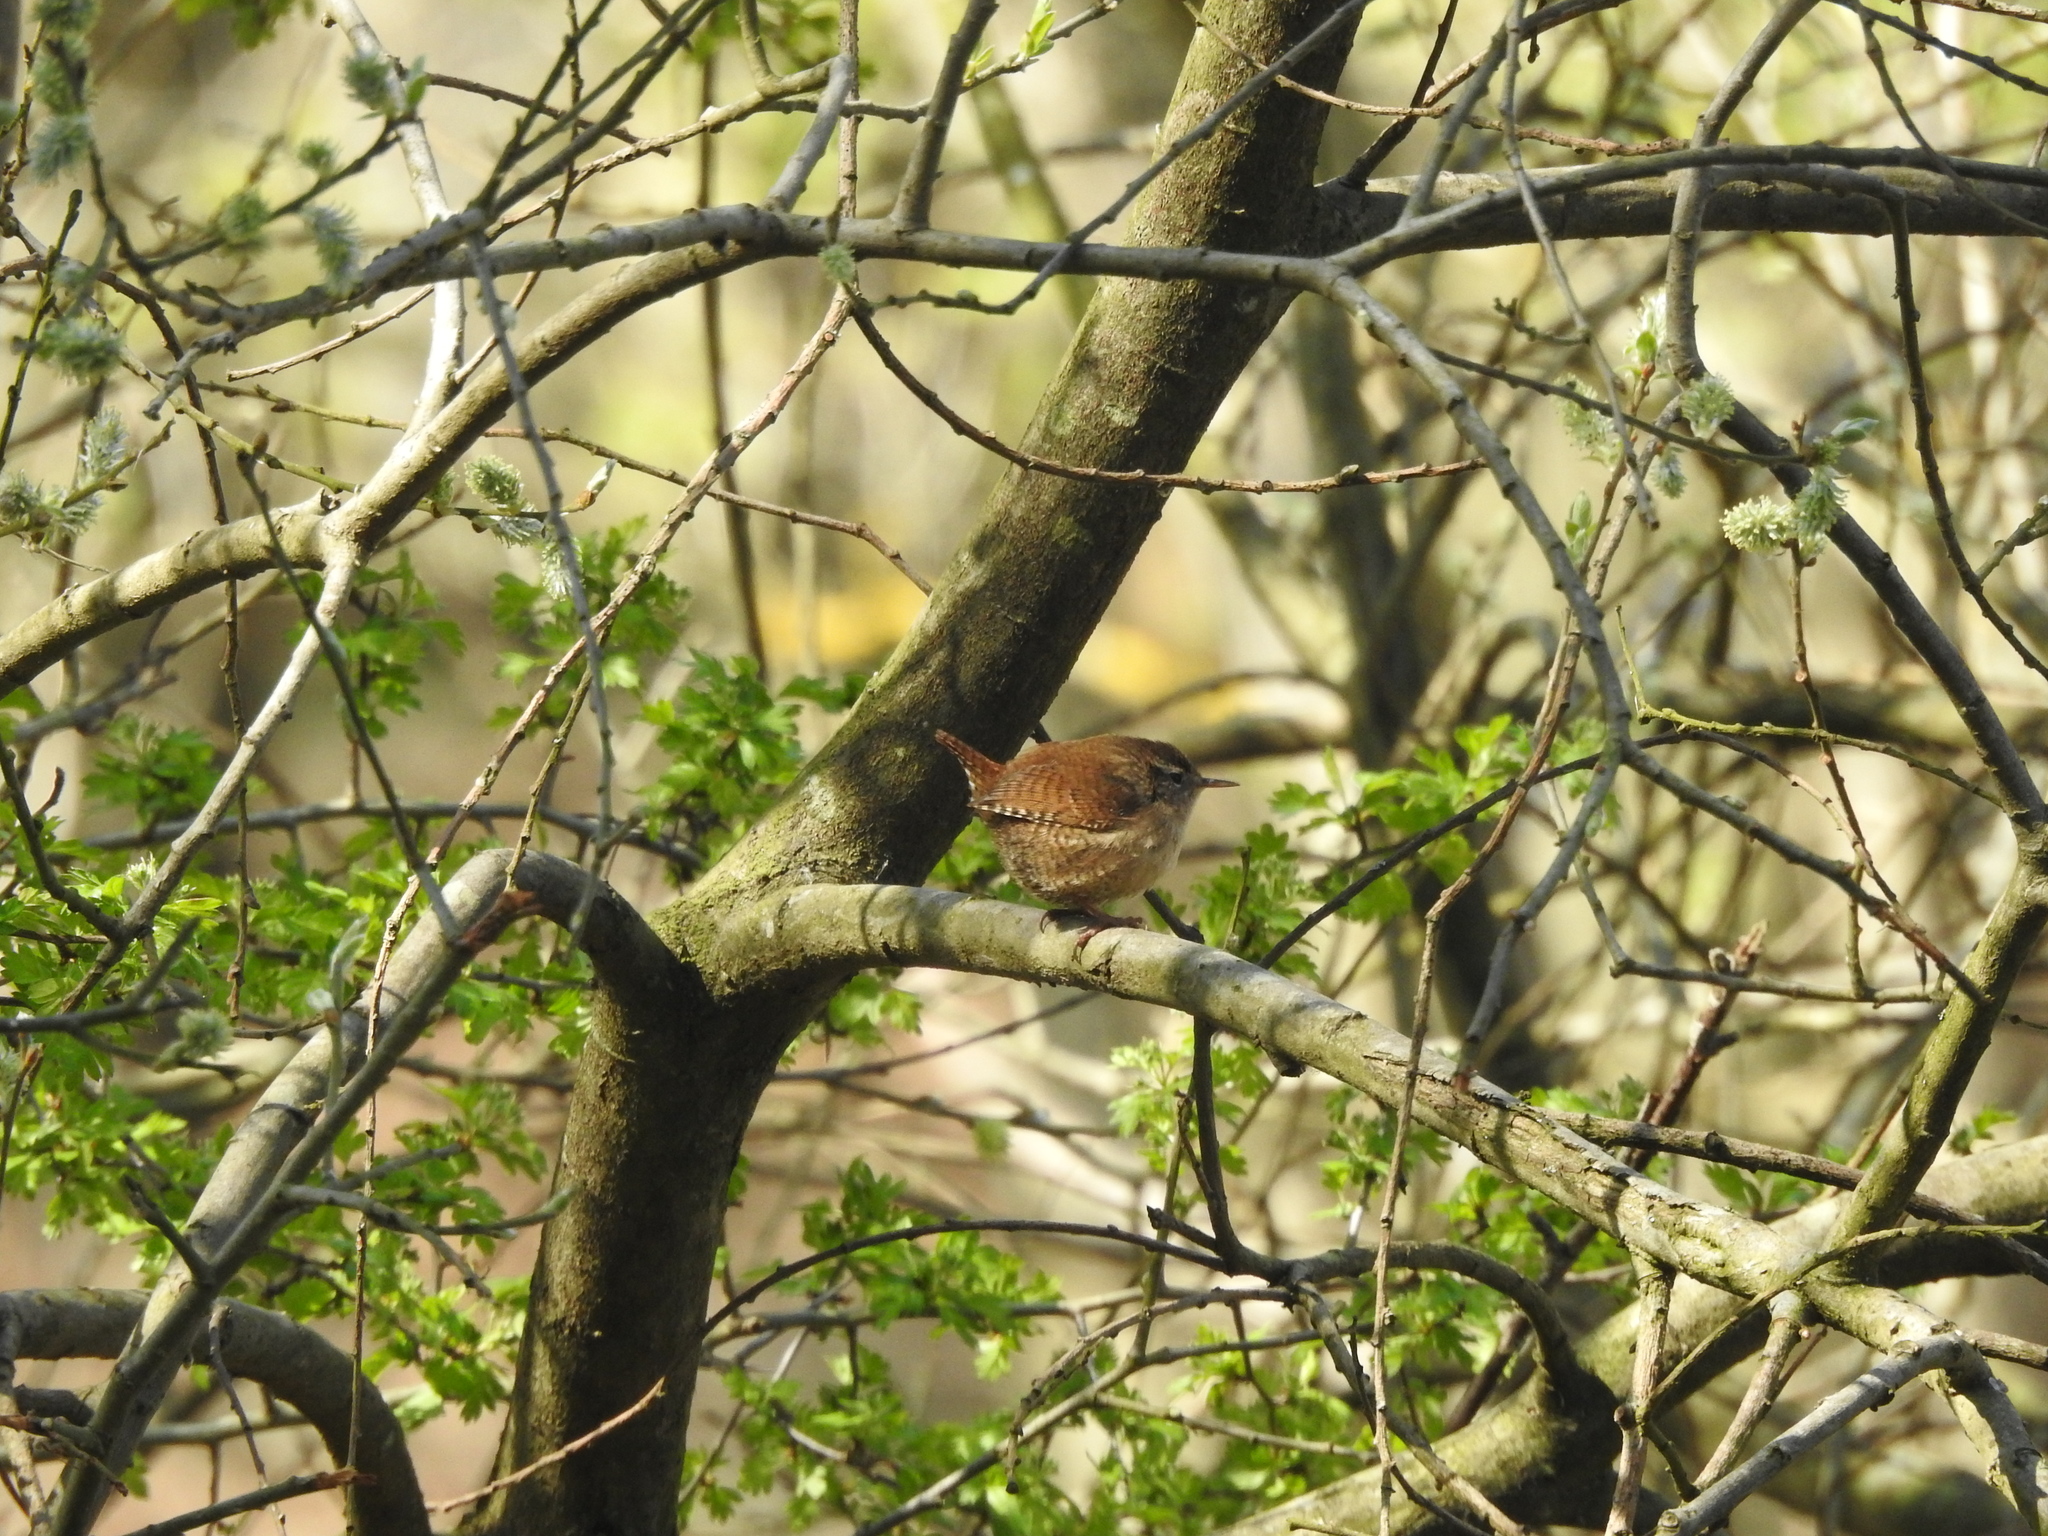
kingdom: Animalia
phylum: Chordata
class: Aves
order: Passeriformes
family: Troglodytidae
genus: Troglodytes
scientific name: Troglodytes troglodytes
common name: Eurasian wren
